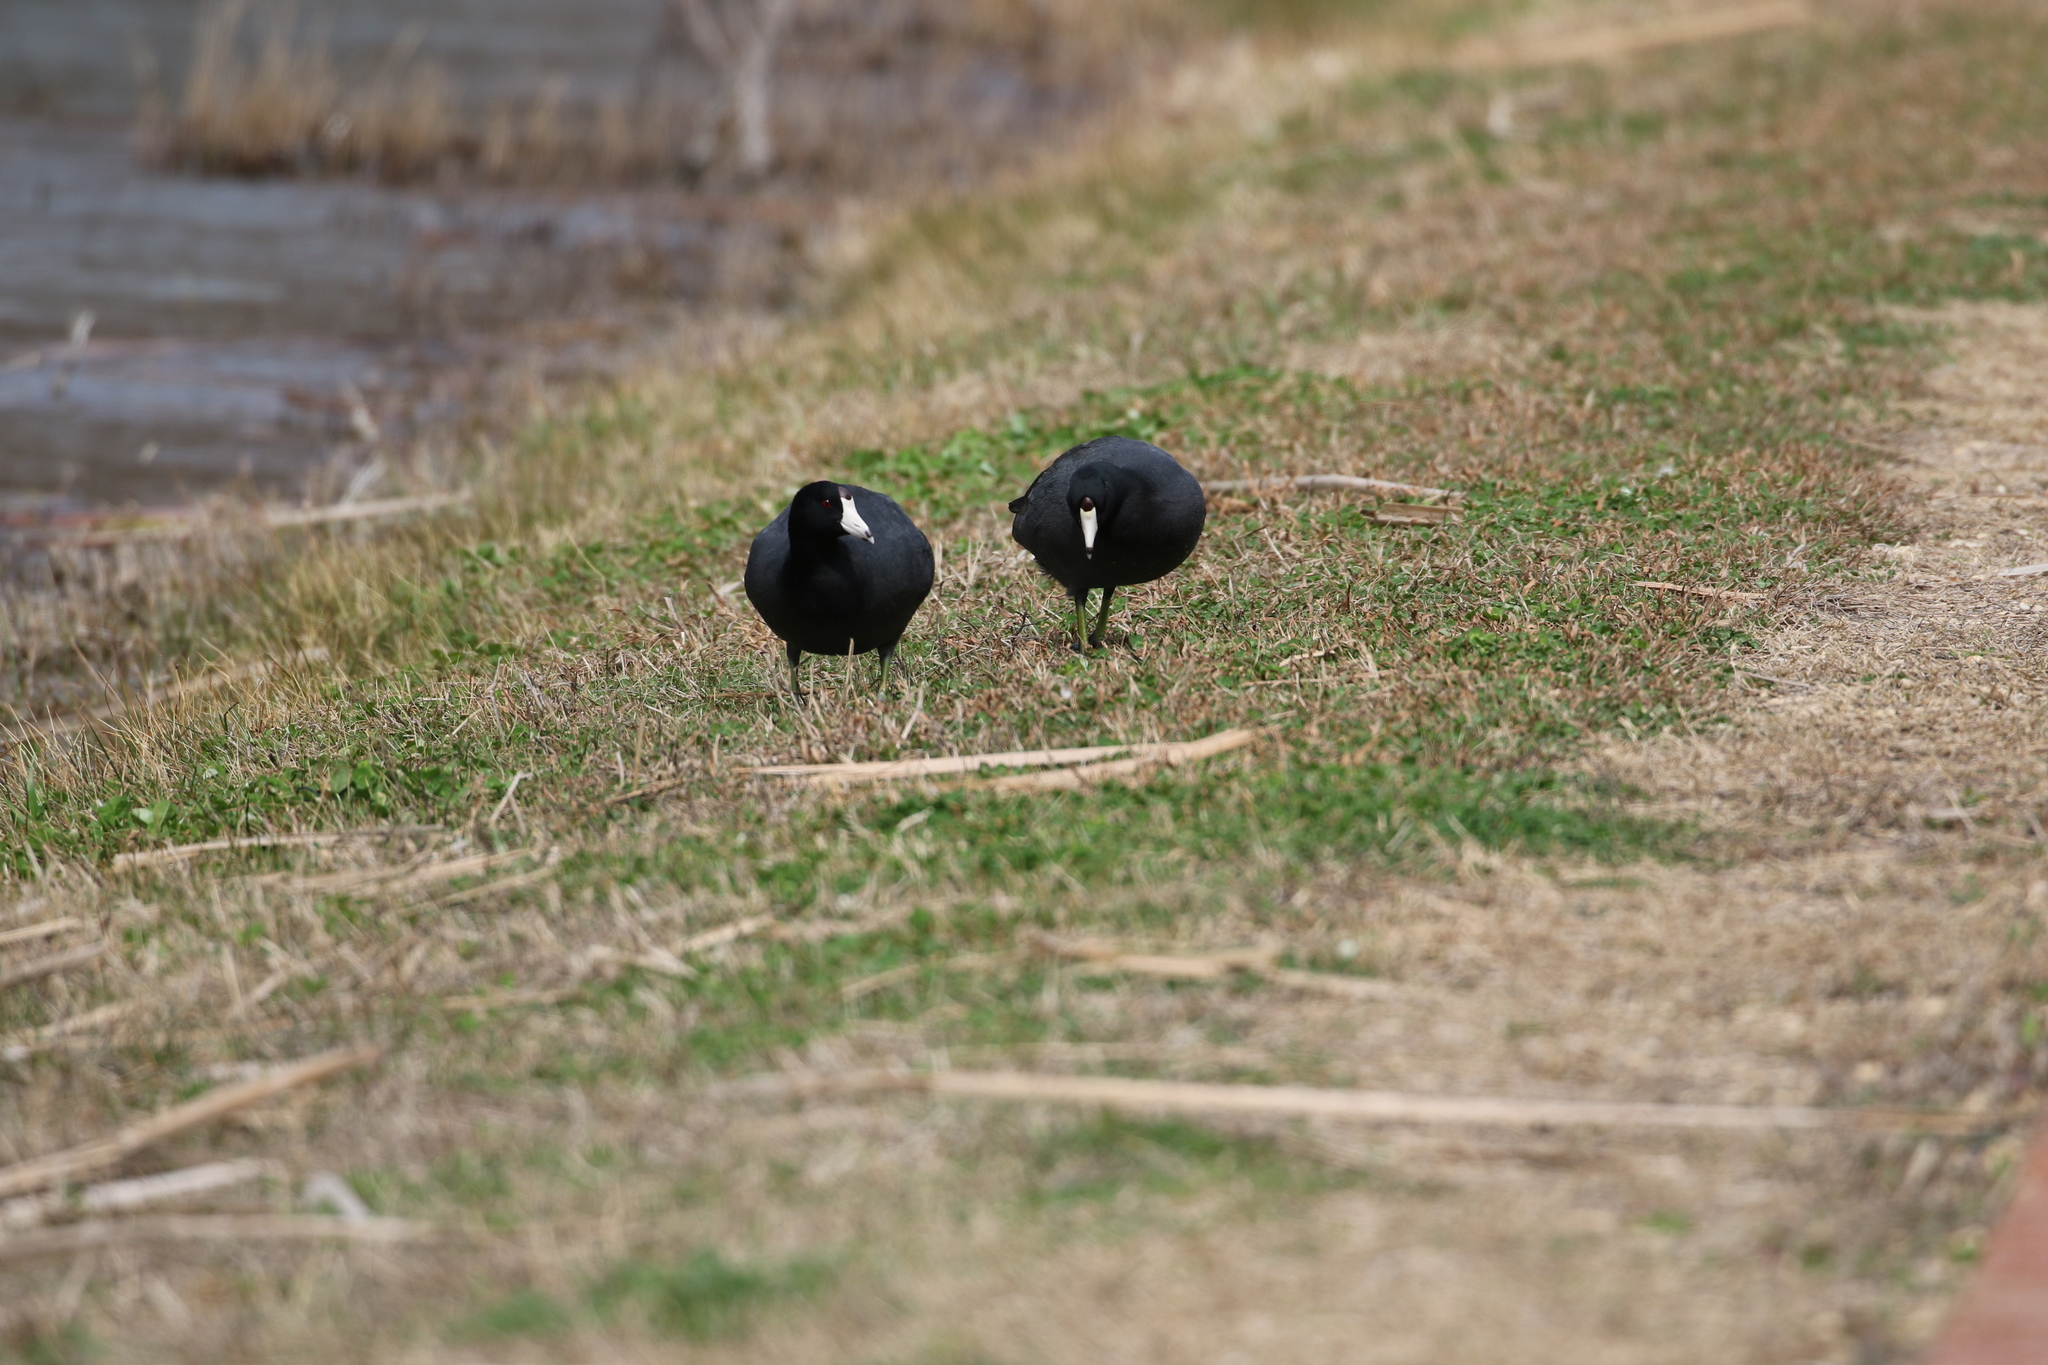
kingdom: Animalia
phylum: Chordata
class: Aves
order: Gruiformes
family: Rallidae
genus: Fulica
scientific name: Fulica americana
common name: American coot
